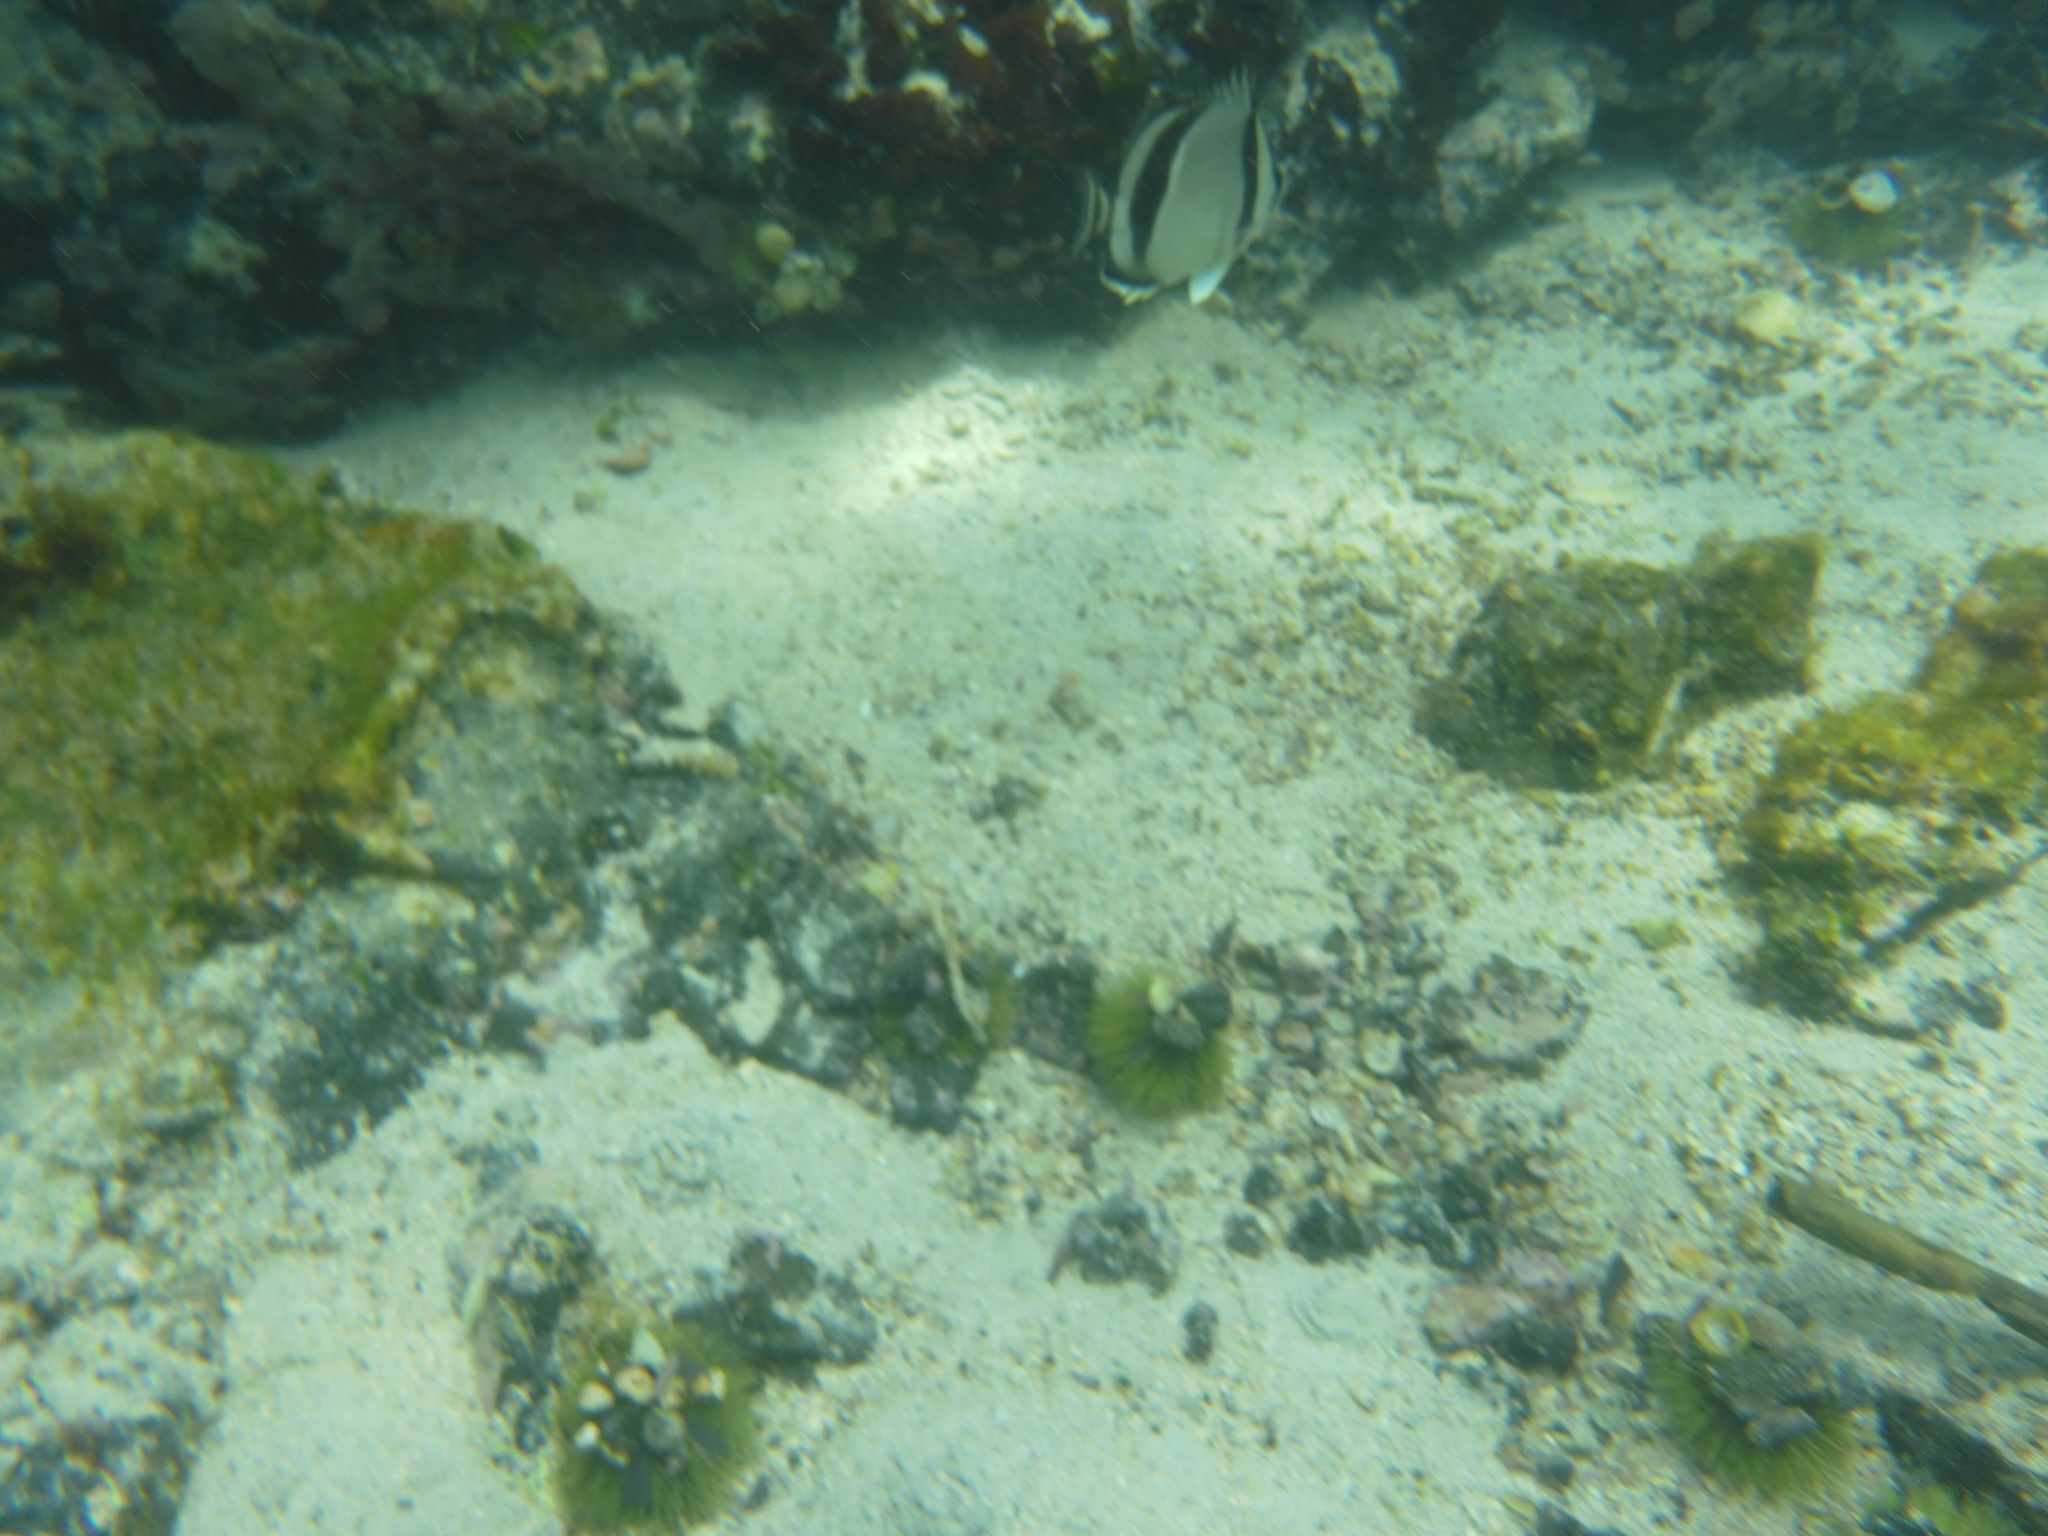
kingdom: Animalia
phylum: Chordata
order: Perciformes
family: Chaetodontidae
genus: Chaetodon
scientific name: Chaetodon humeralis
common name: Threebanded butterflyfish
